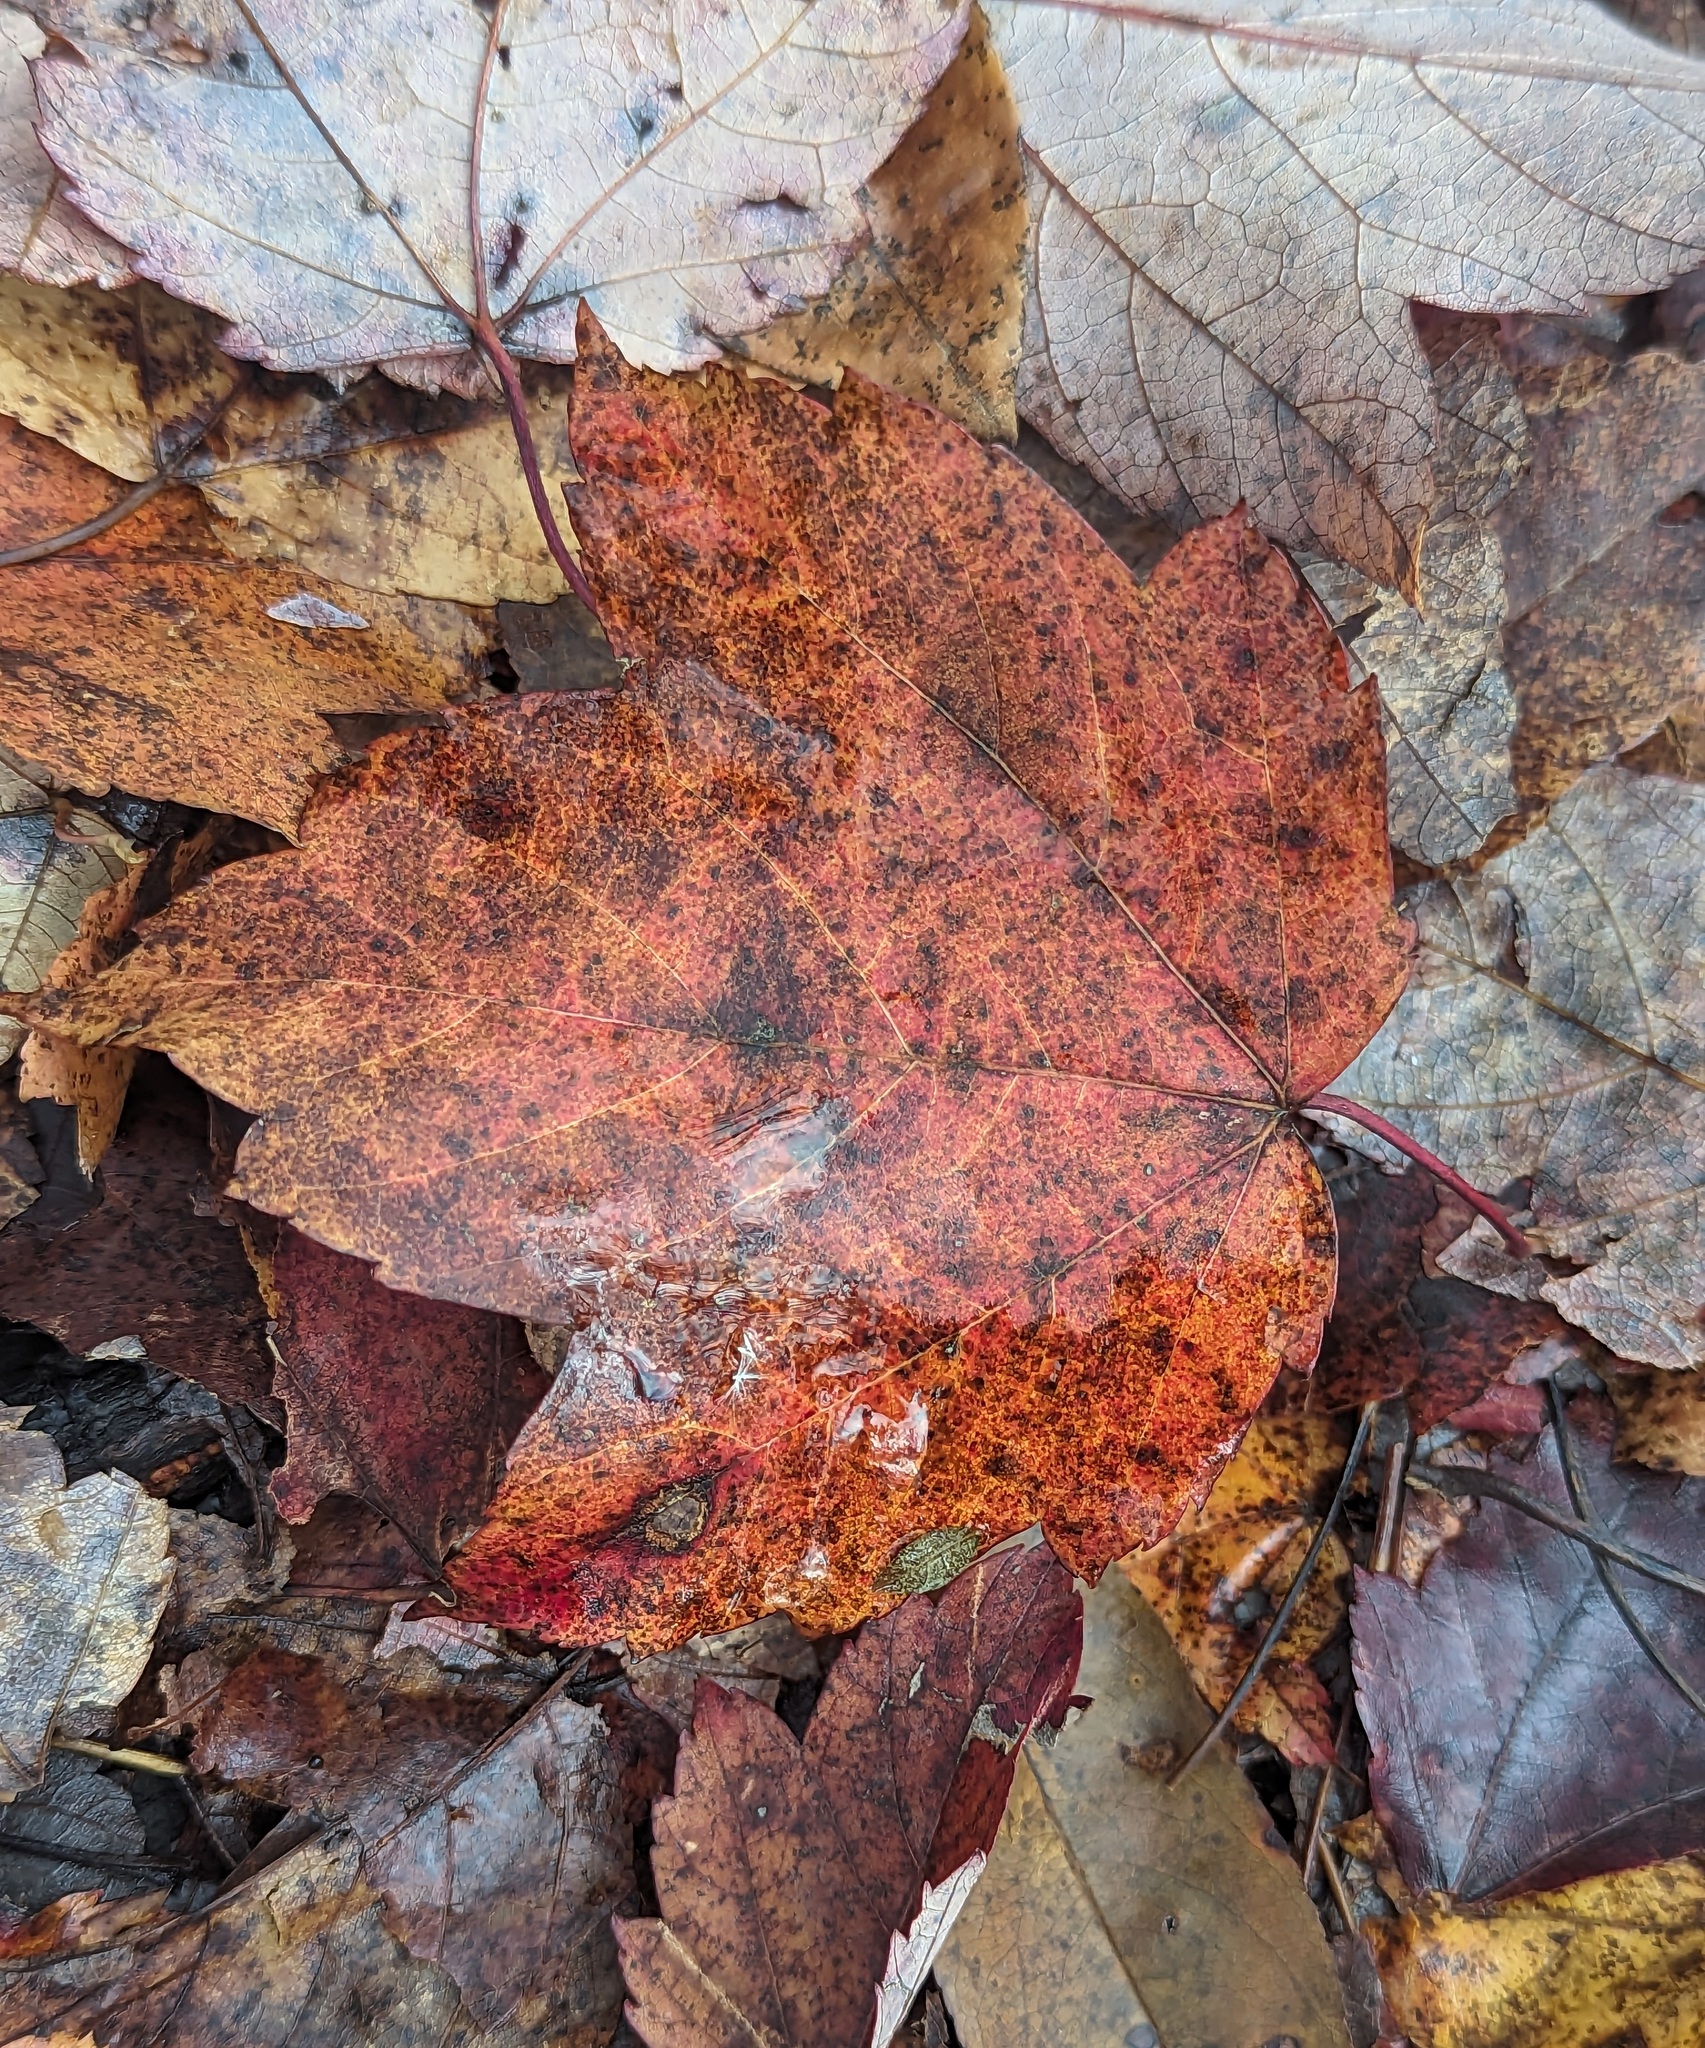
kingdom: Plantae
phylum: Tracheophyta
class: Magnoliopsida
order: Sapindales
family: Sapindaceae
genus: Acer
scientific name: Acer rubrum
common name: Red maple
